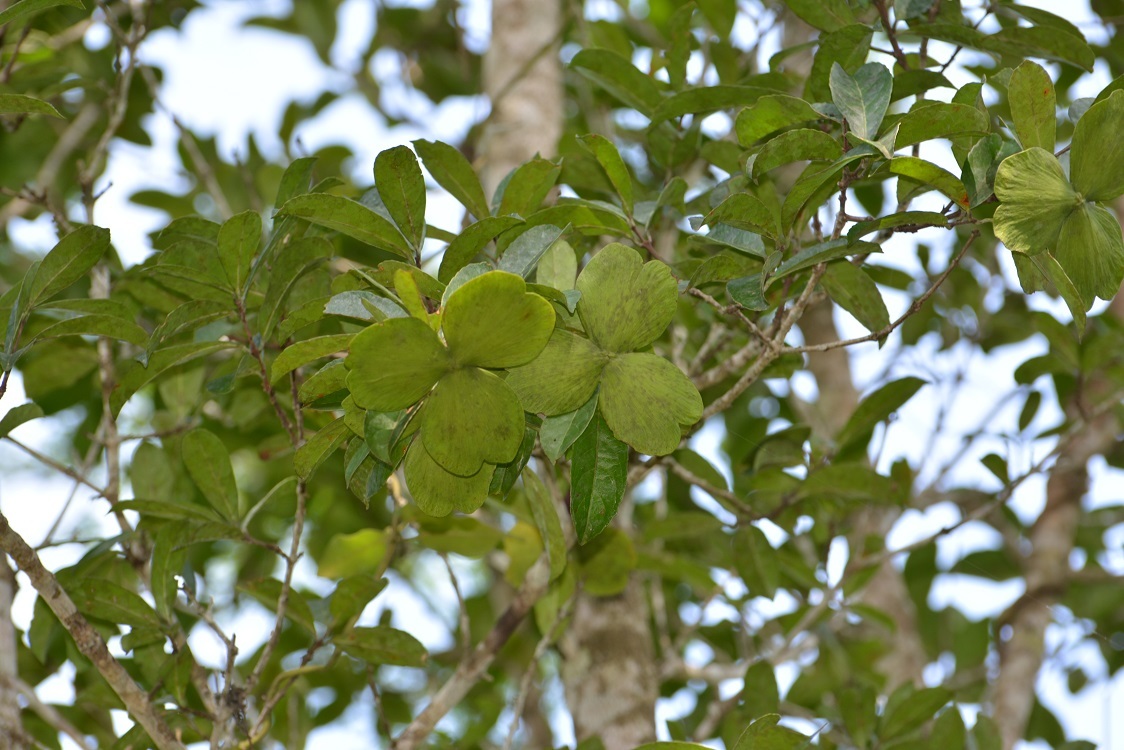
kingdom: Plantae
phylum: Tracheophyta
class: Magnoliopsida
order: Celastrales
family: Celastraceae
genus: Semialarium
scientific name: Semialarium mexicanum
